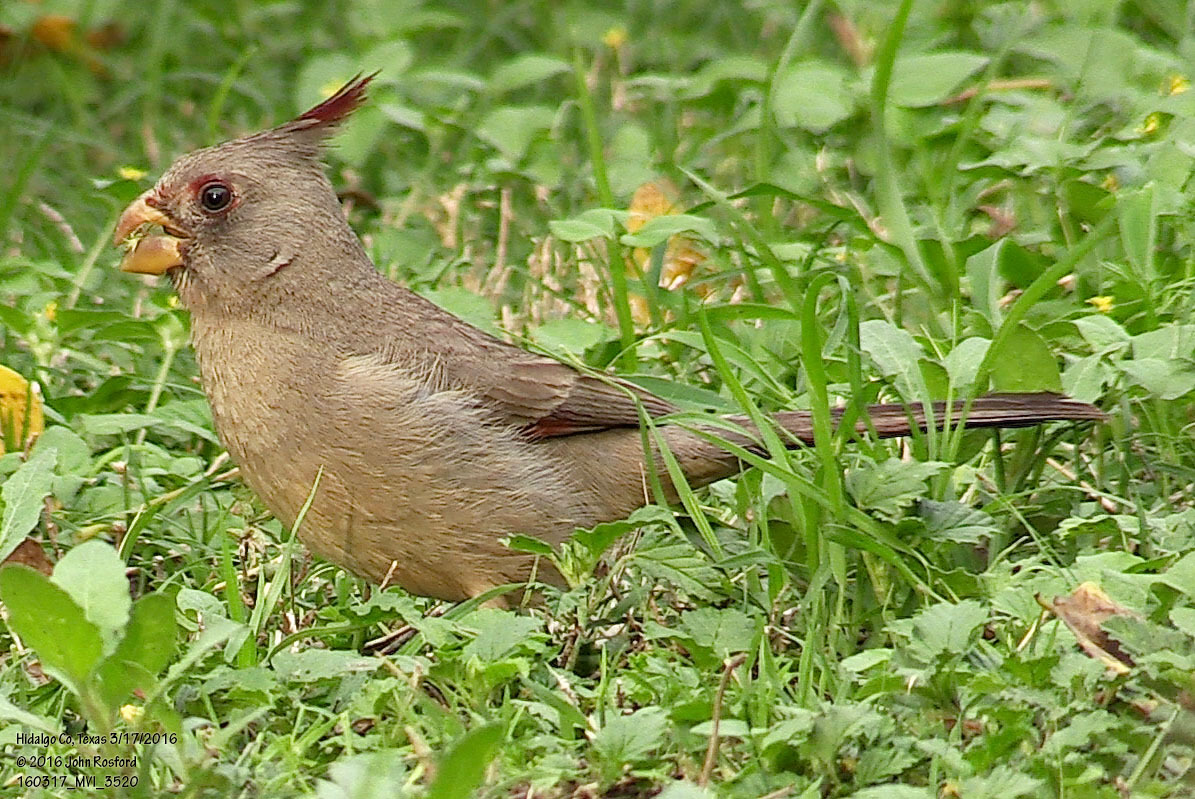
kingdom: Animalia
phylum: Chordata
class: Aves
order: Passeriformes
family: Cardinalidae
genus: Cardinalis
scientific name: Cardinalis sinuatus
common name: Pyrrhuloxia
